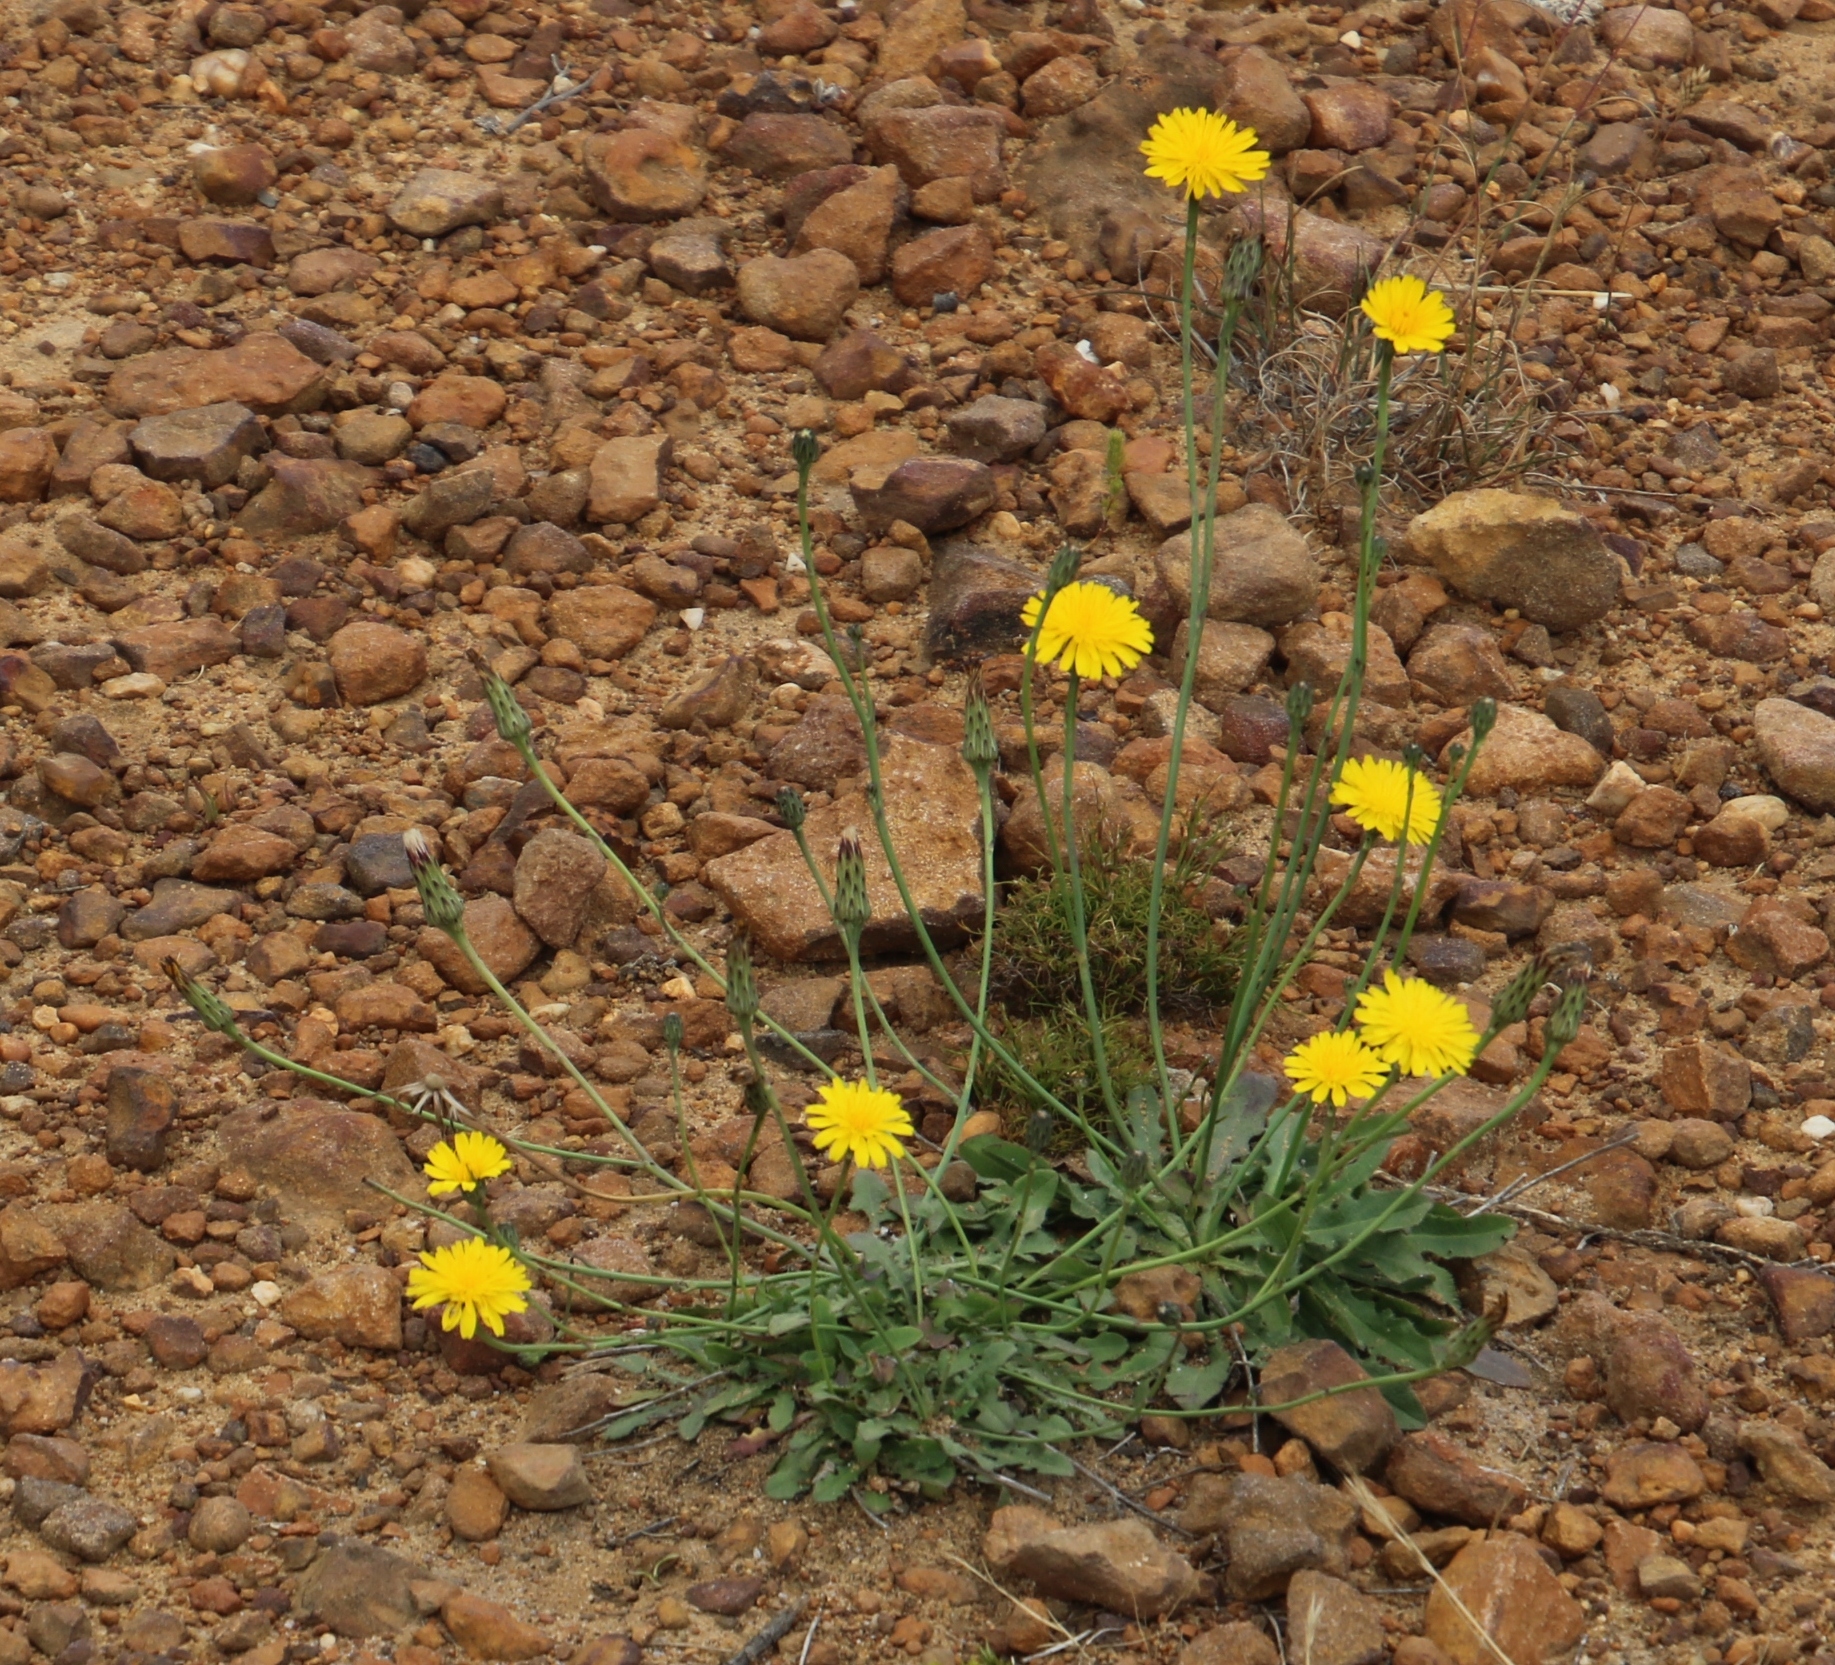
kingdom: Plantae
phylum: Tracheophyta
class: Magnoliopsida
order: Asterales
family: Asteraceae
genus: Hypochaeris
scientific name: Hypochaeris radicata
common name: Flatweed
